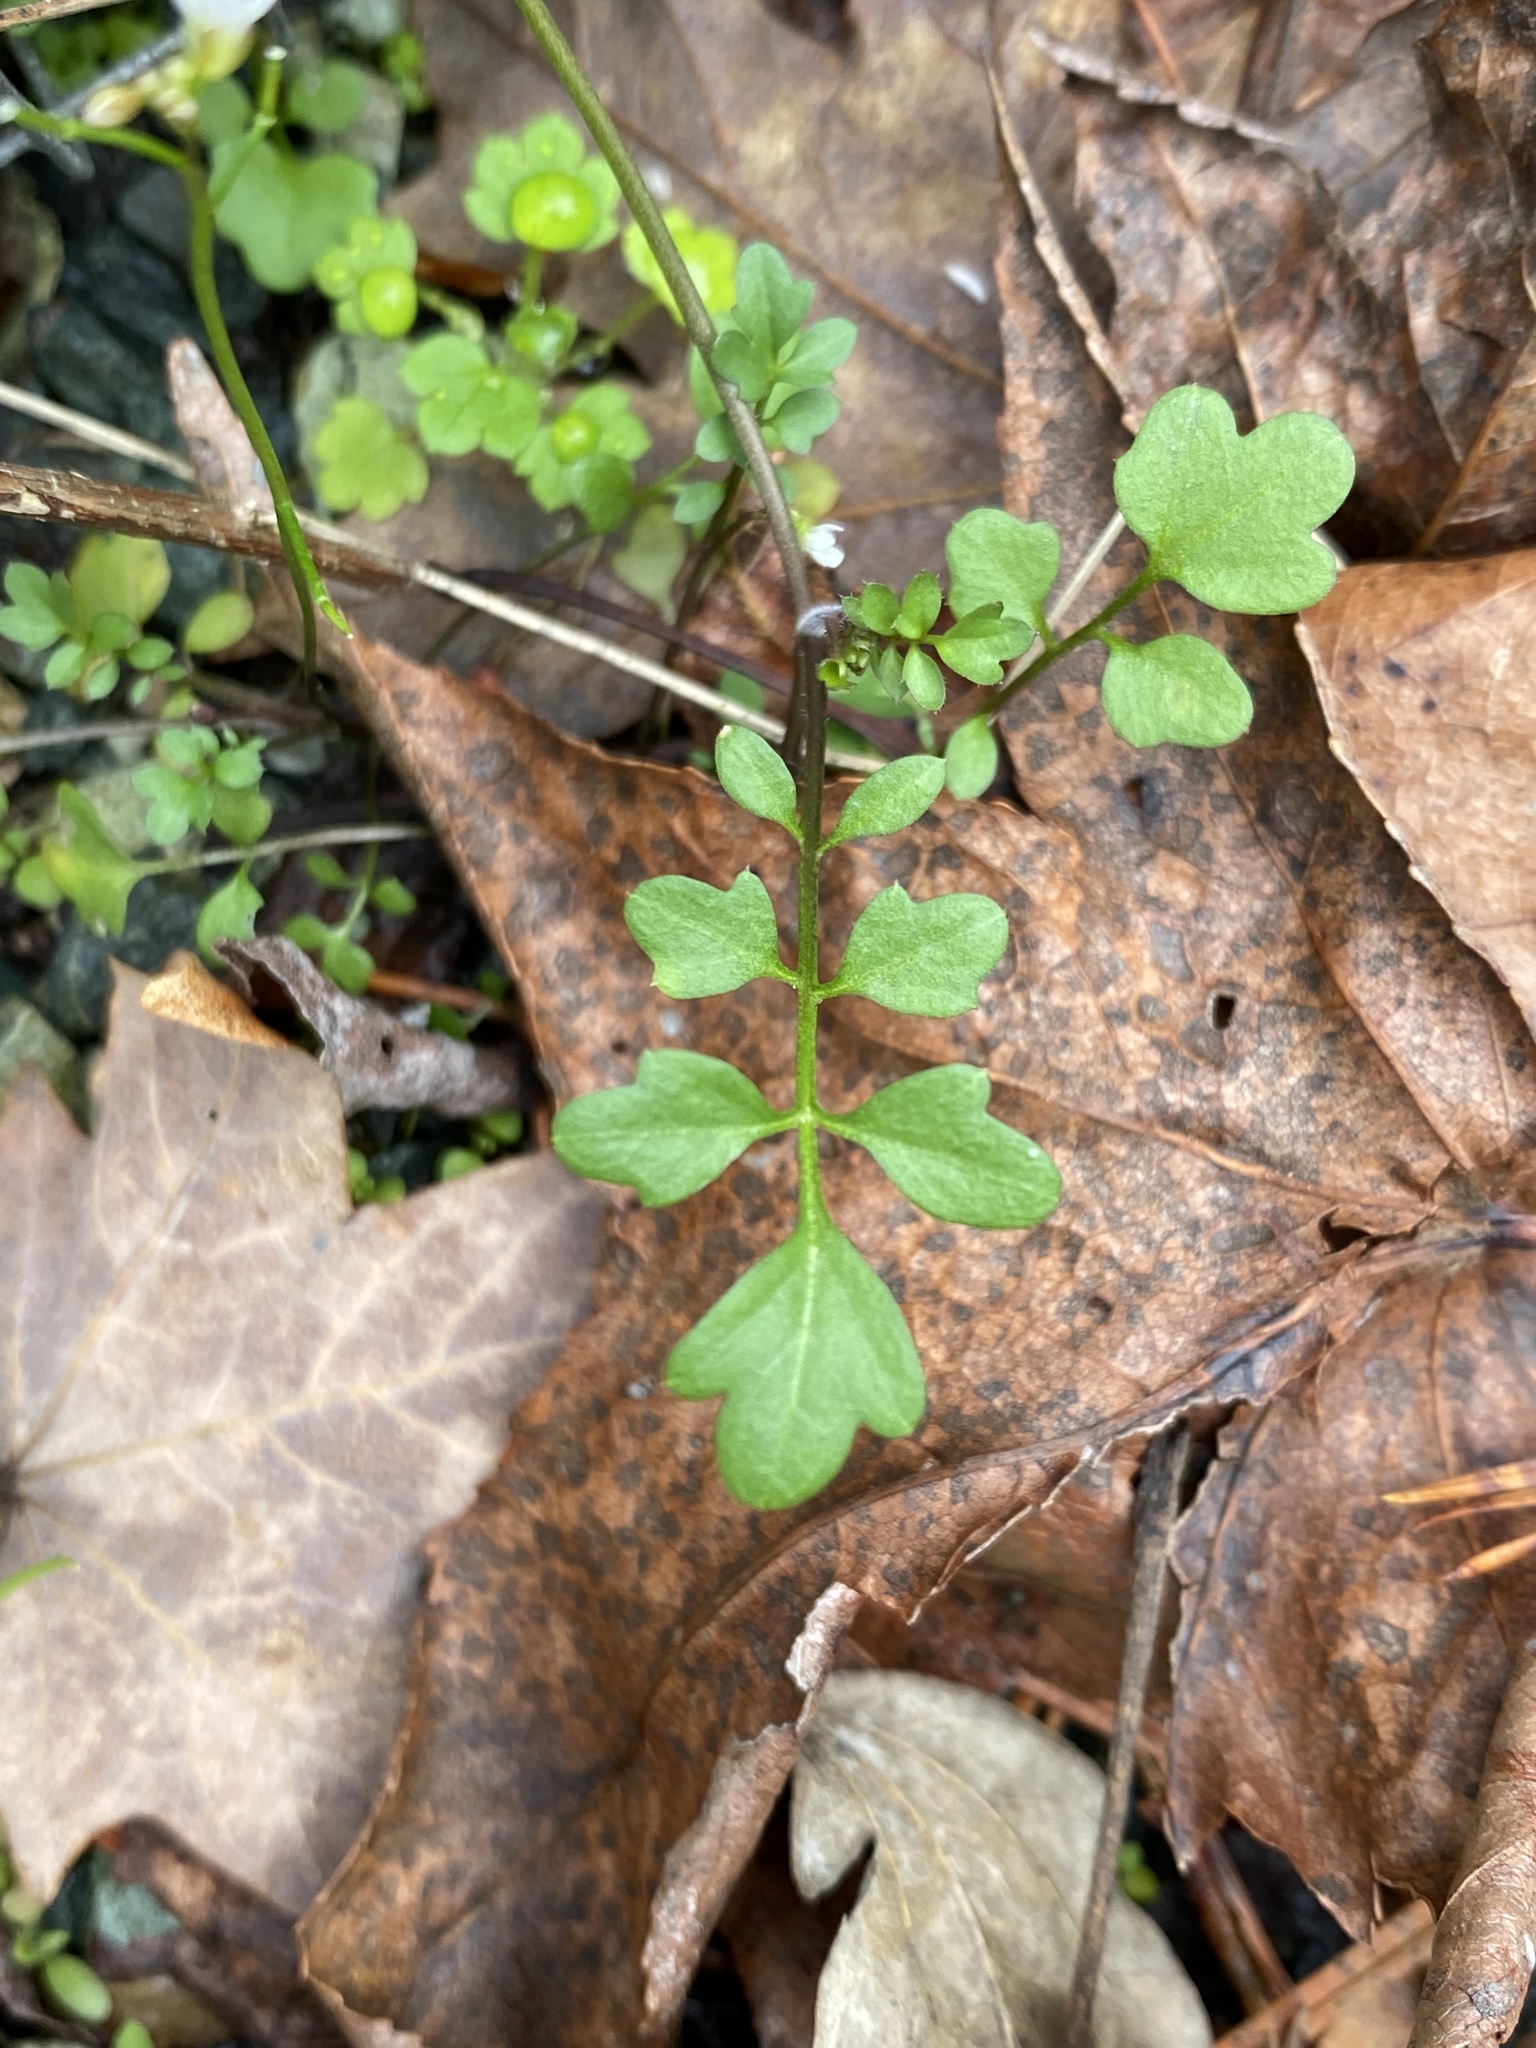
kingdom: Plantae
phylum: Tracheophyta
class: Magnoliopsida
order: Brassicales
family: Brassicaceae
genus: Cardamine
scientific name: Cardamine hirsuta
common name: Hairy bittercress
